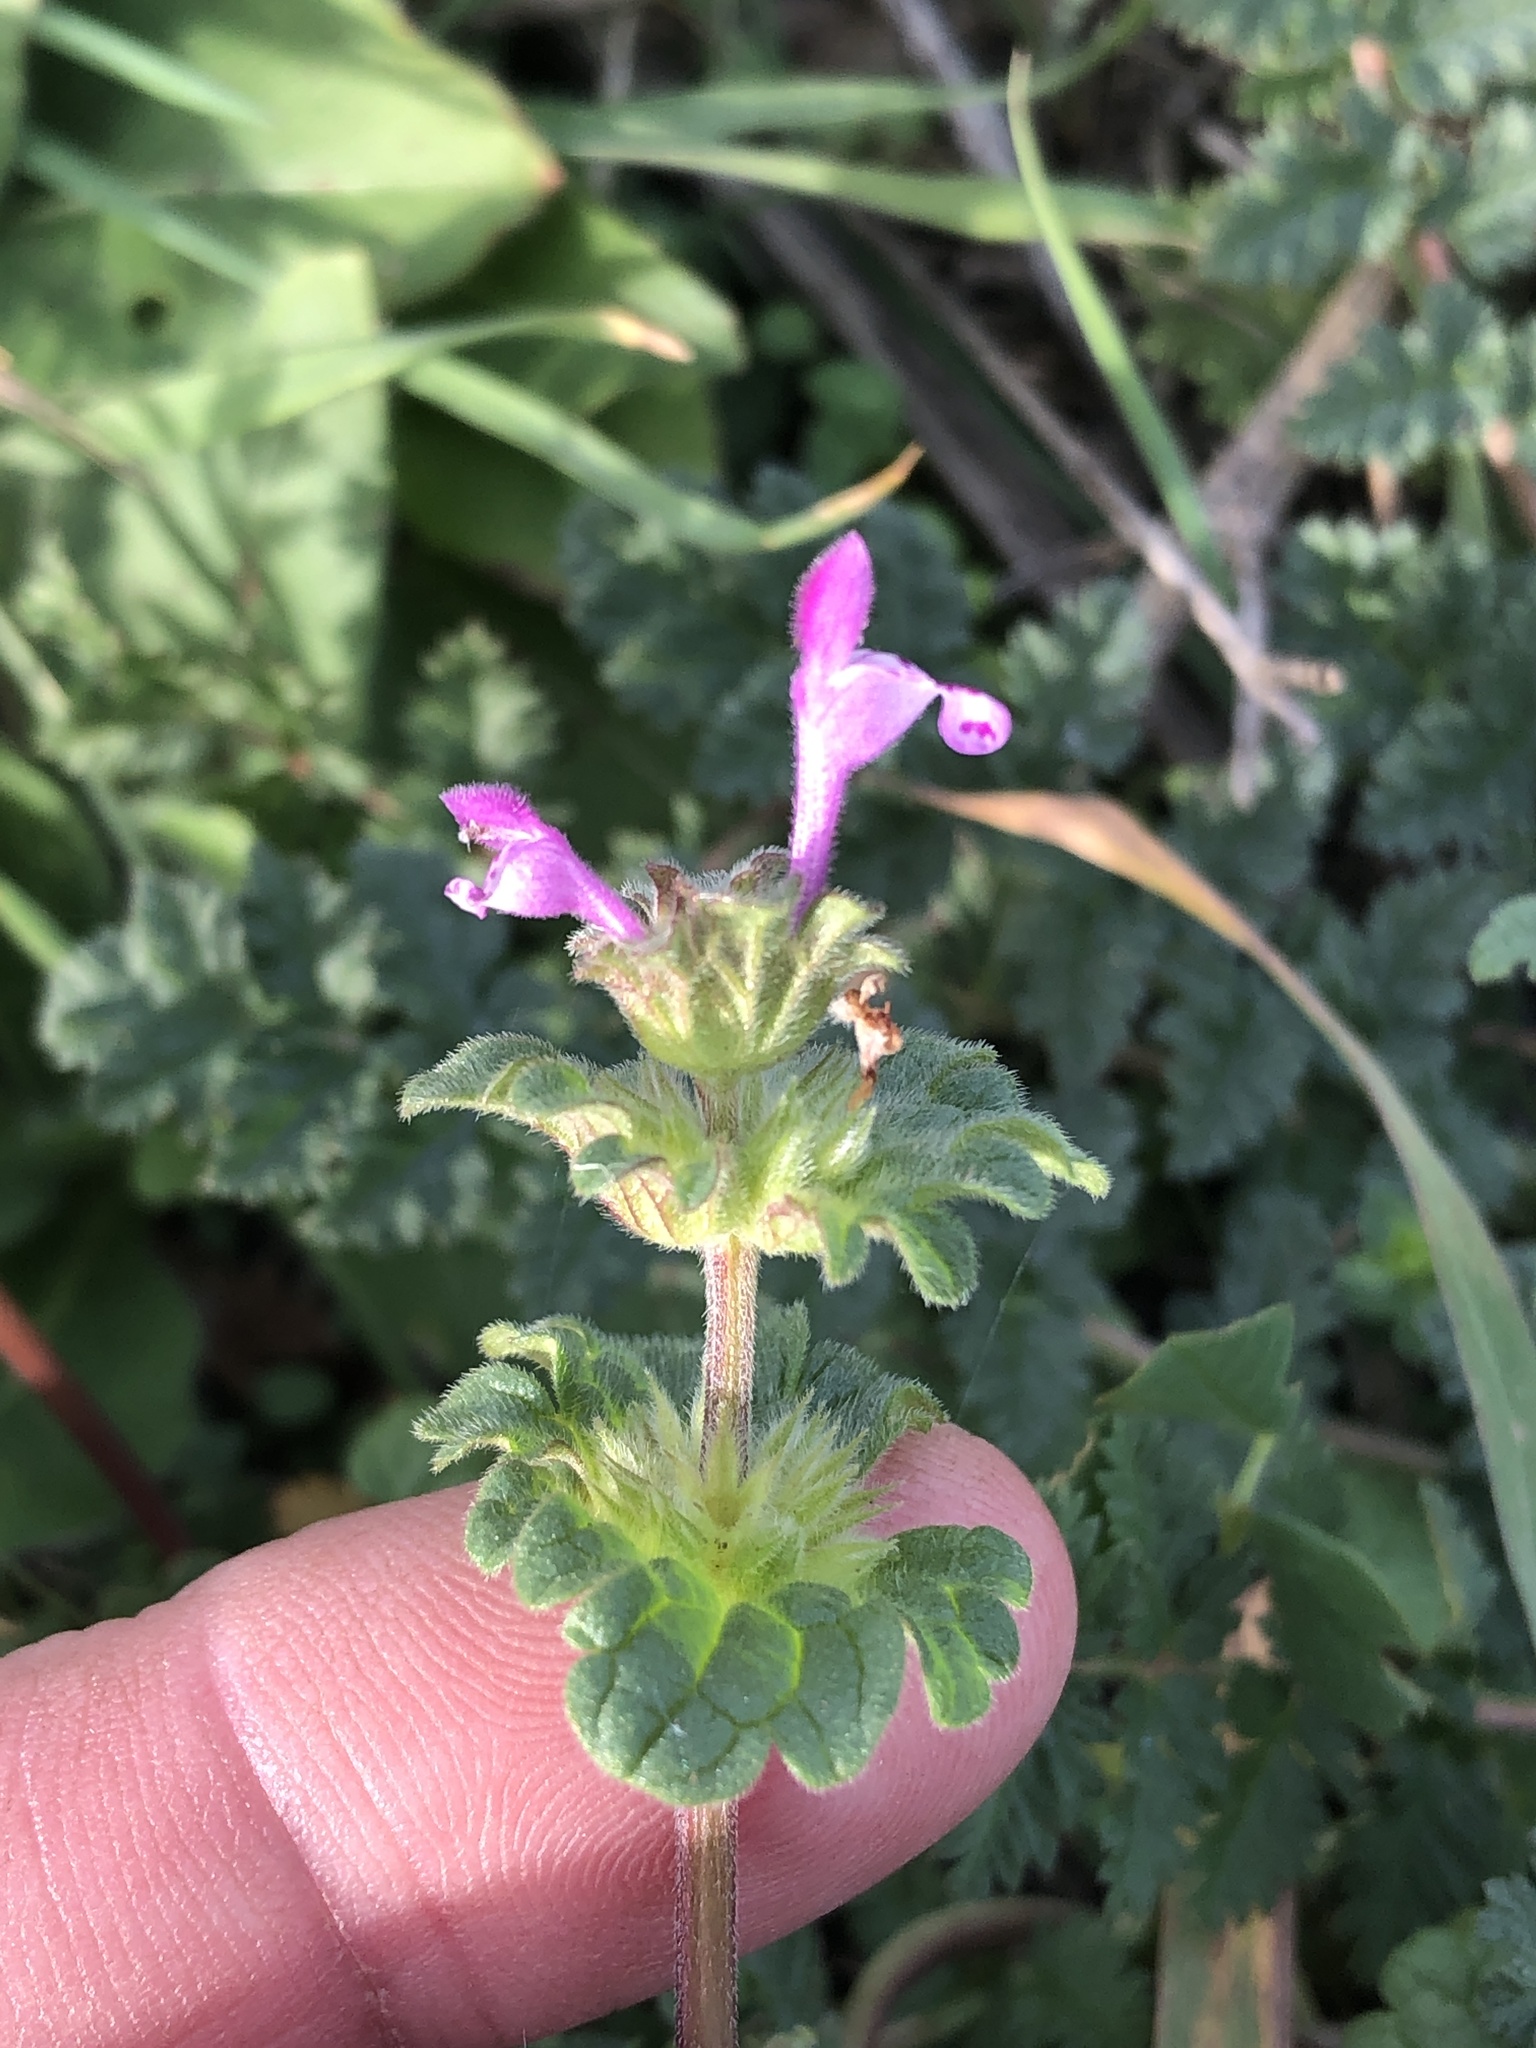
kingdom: Plantae
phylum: Tracheophyta
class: Magnoliopsida
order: Lamiales
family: Lamiaceae
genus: Lamium
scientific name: Lamium amplexicaule
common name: Henbit dead-nettle
